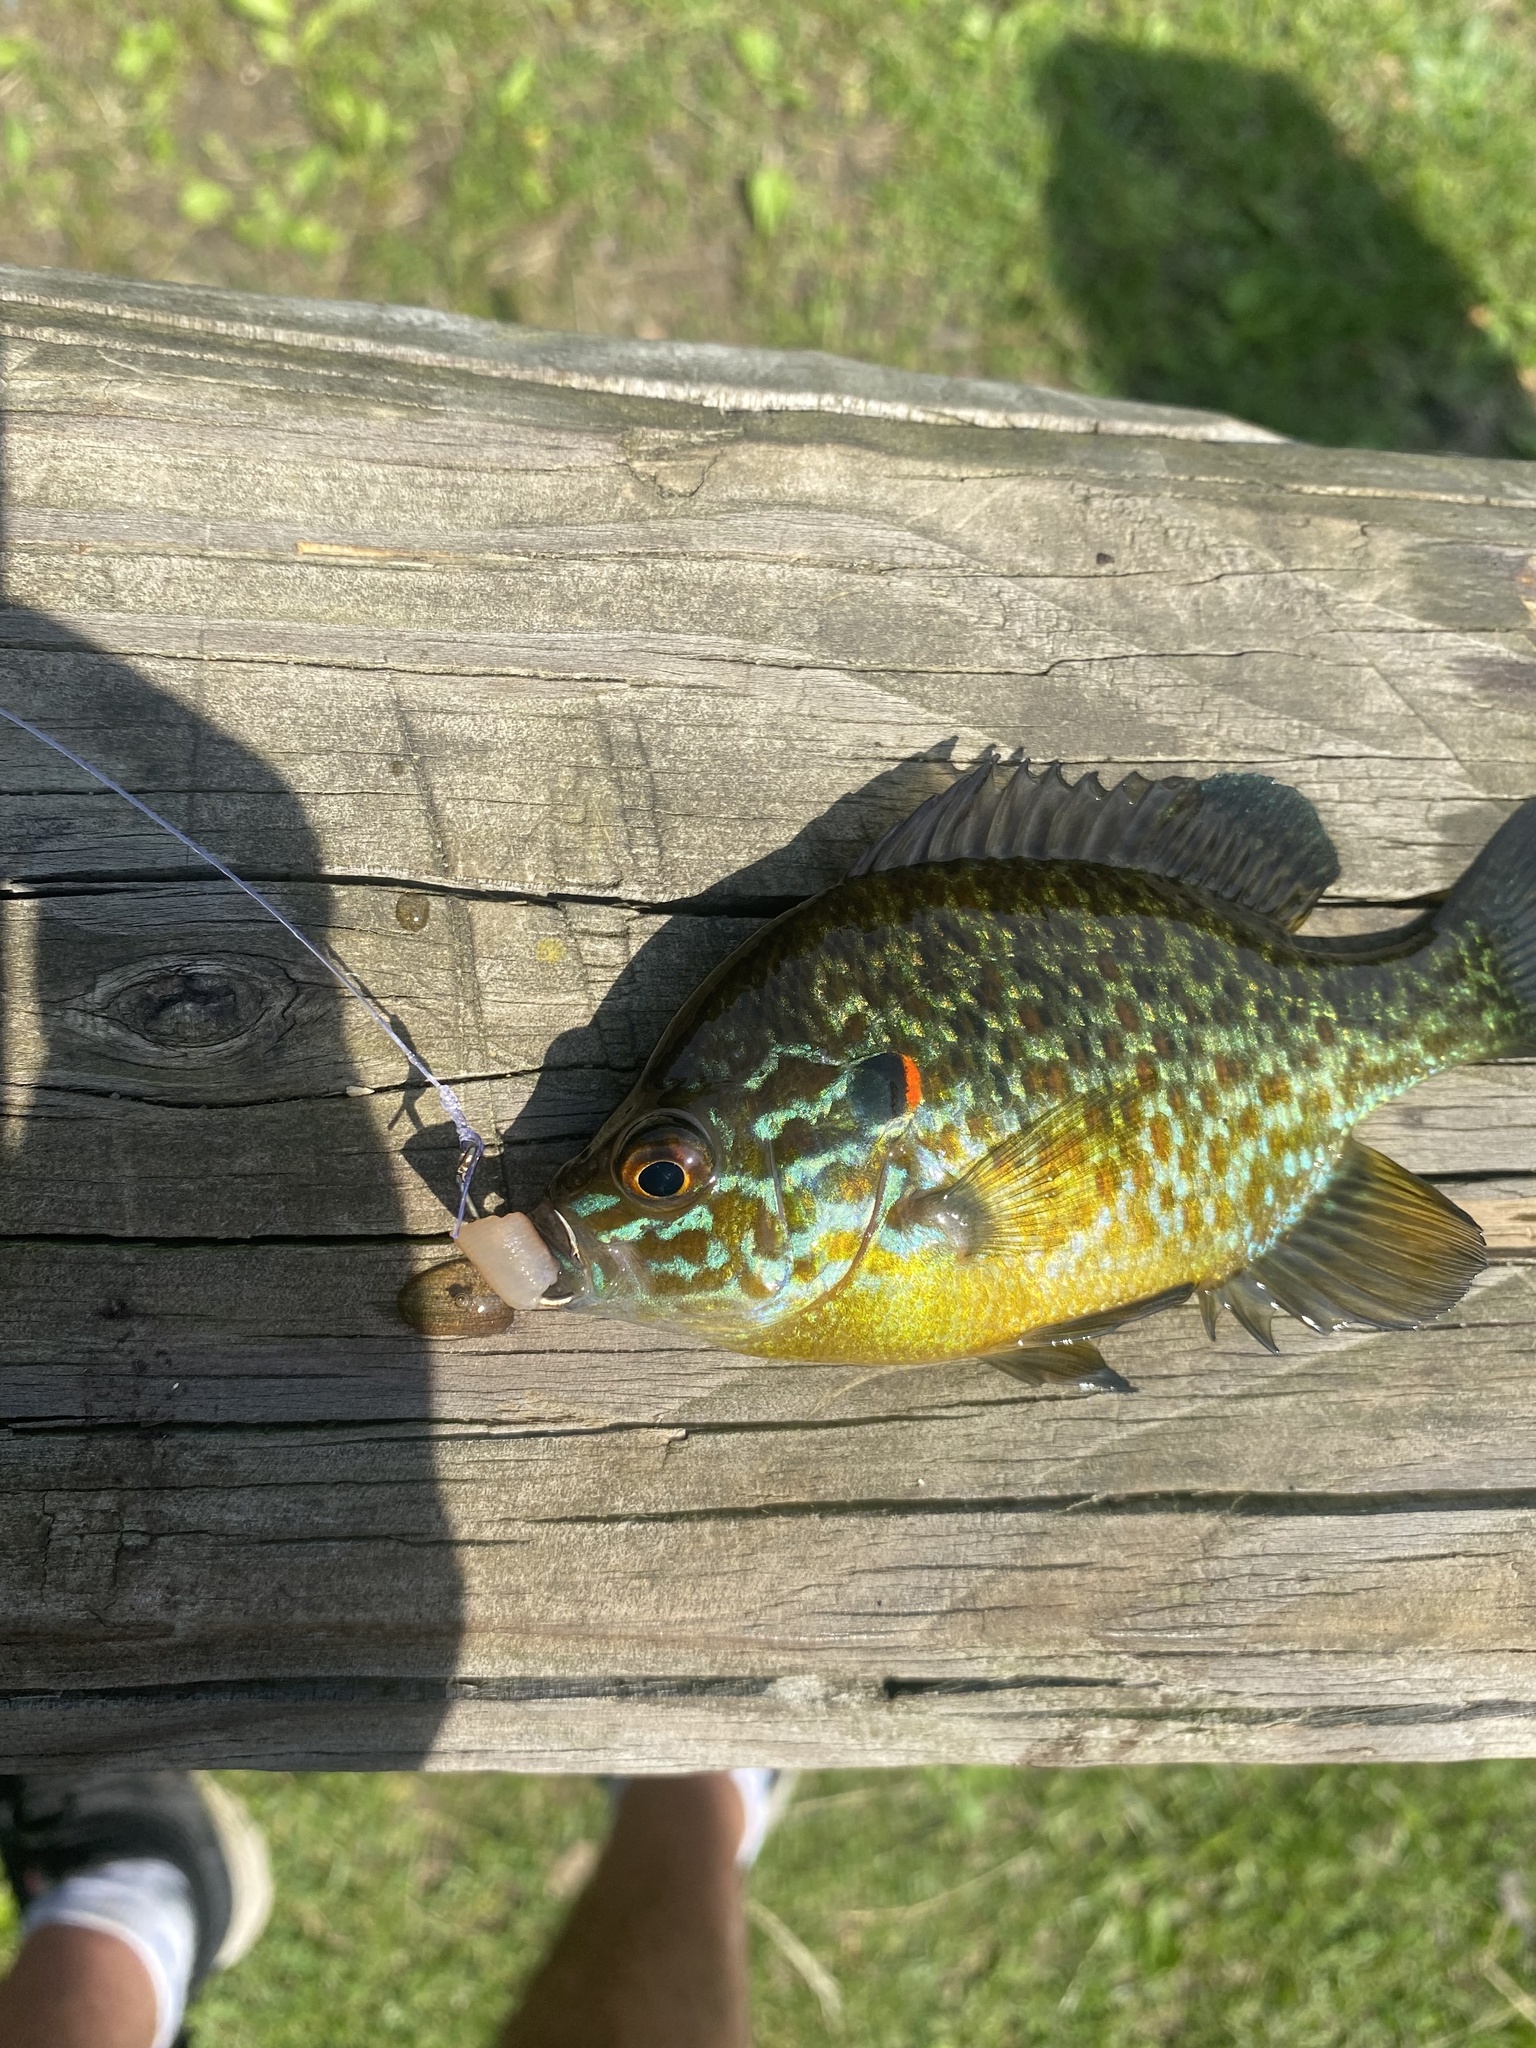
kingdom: Animalia
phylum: Chordata
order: Perciformes
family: Centrarchidae
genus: Lepomis
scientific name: Lepomis gibbosus
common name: Pumpkinseed
